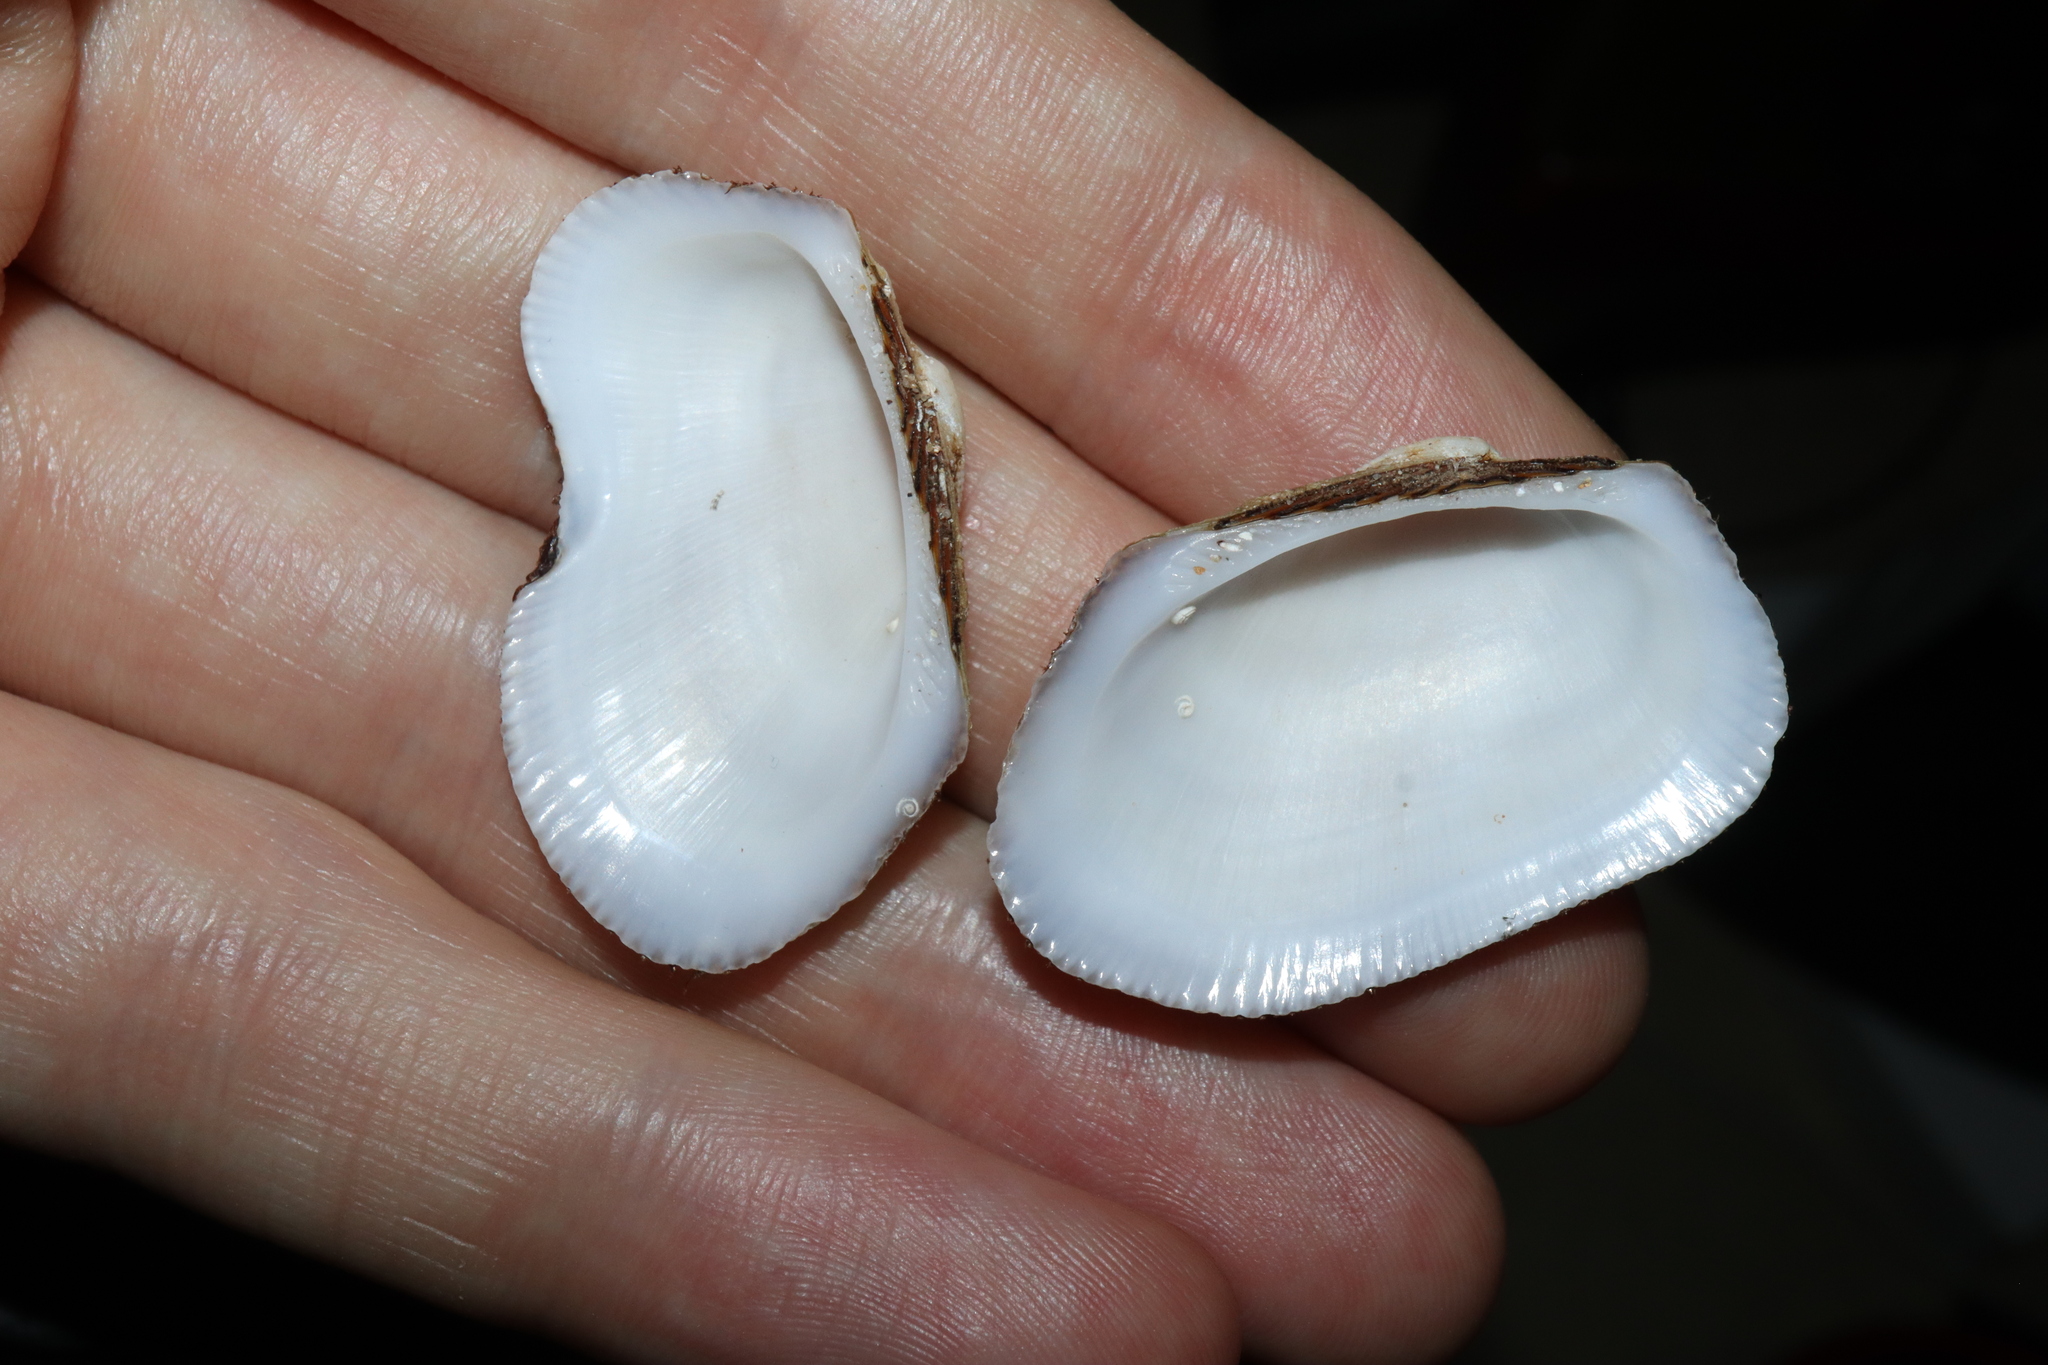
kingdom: Animalia
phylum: Mollusca
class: Bivalvia
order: Arcida
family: Arcidae
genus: Barbatia
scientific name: Barbatia parvivillosa
